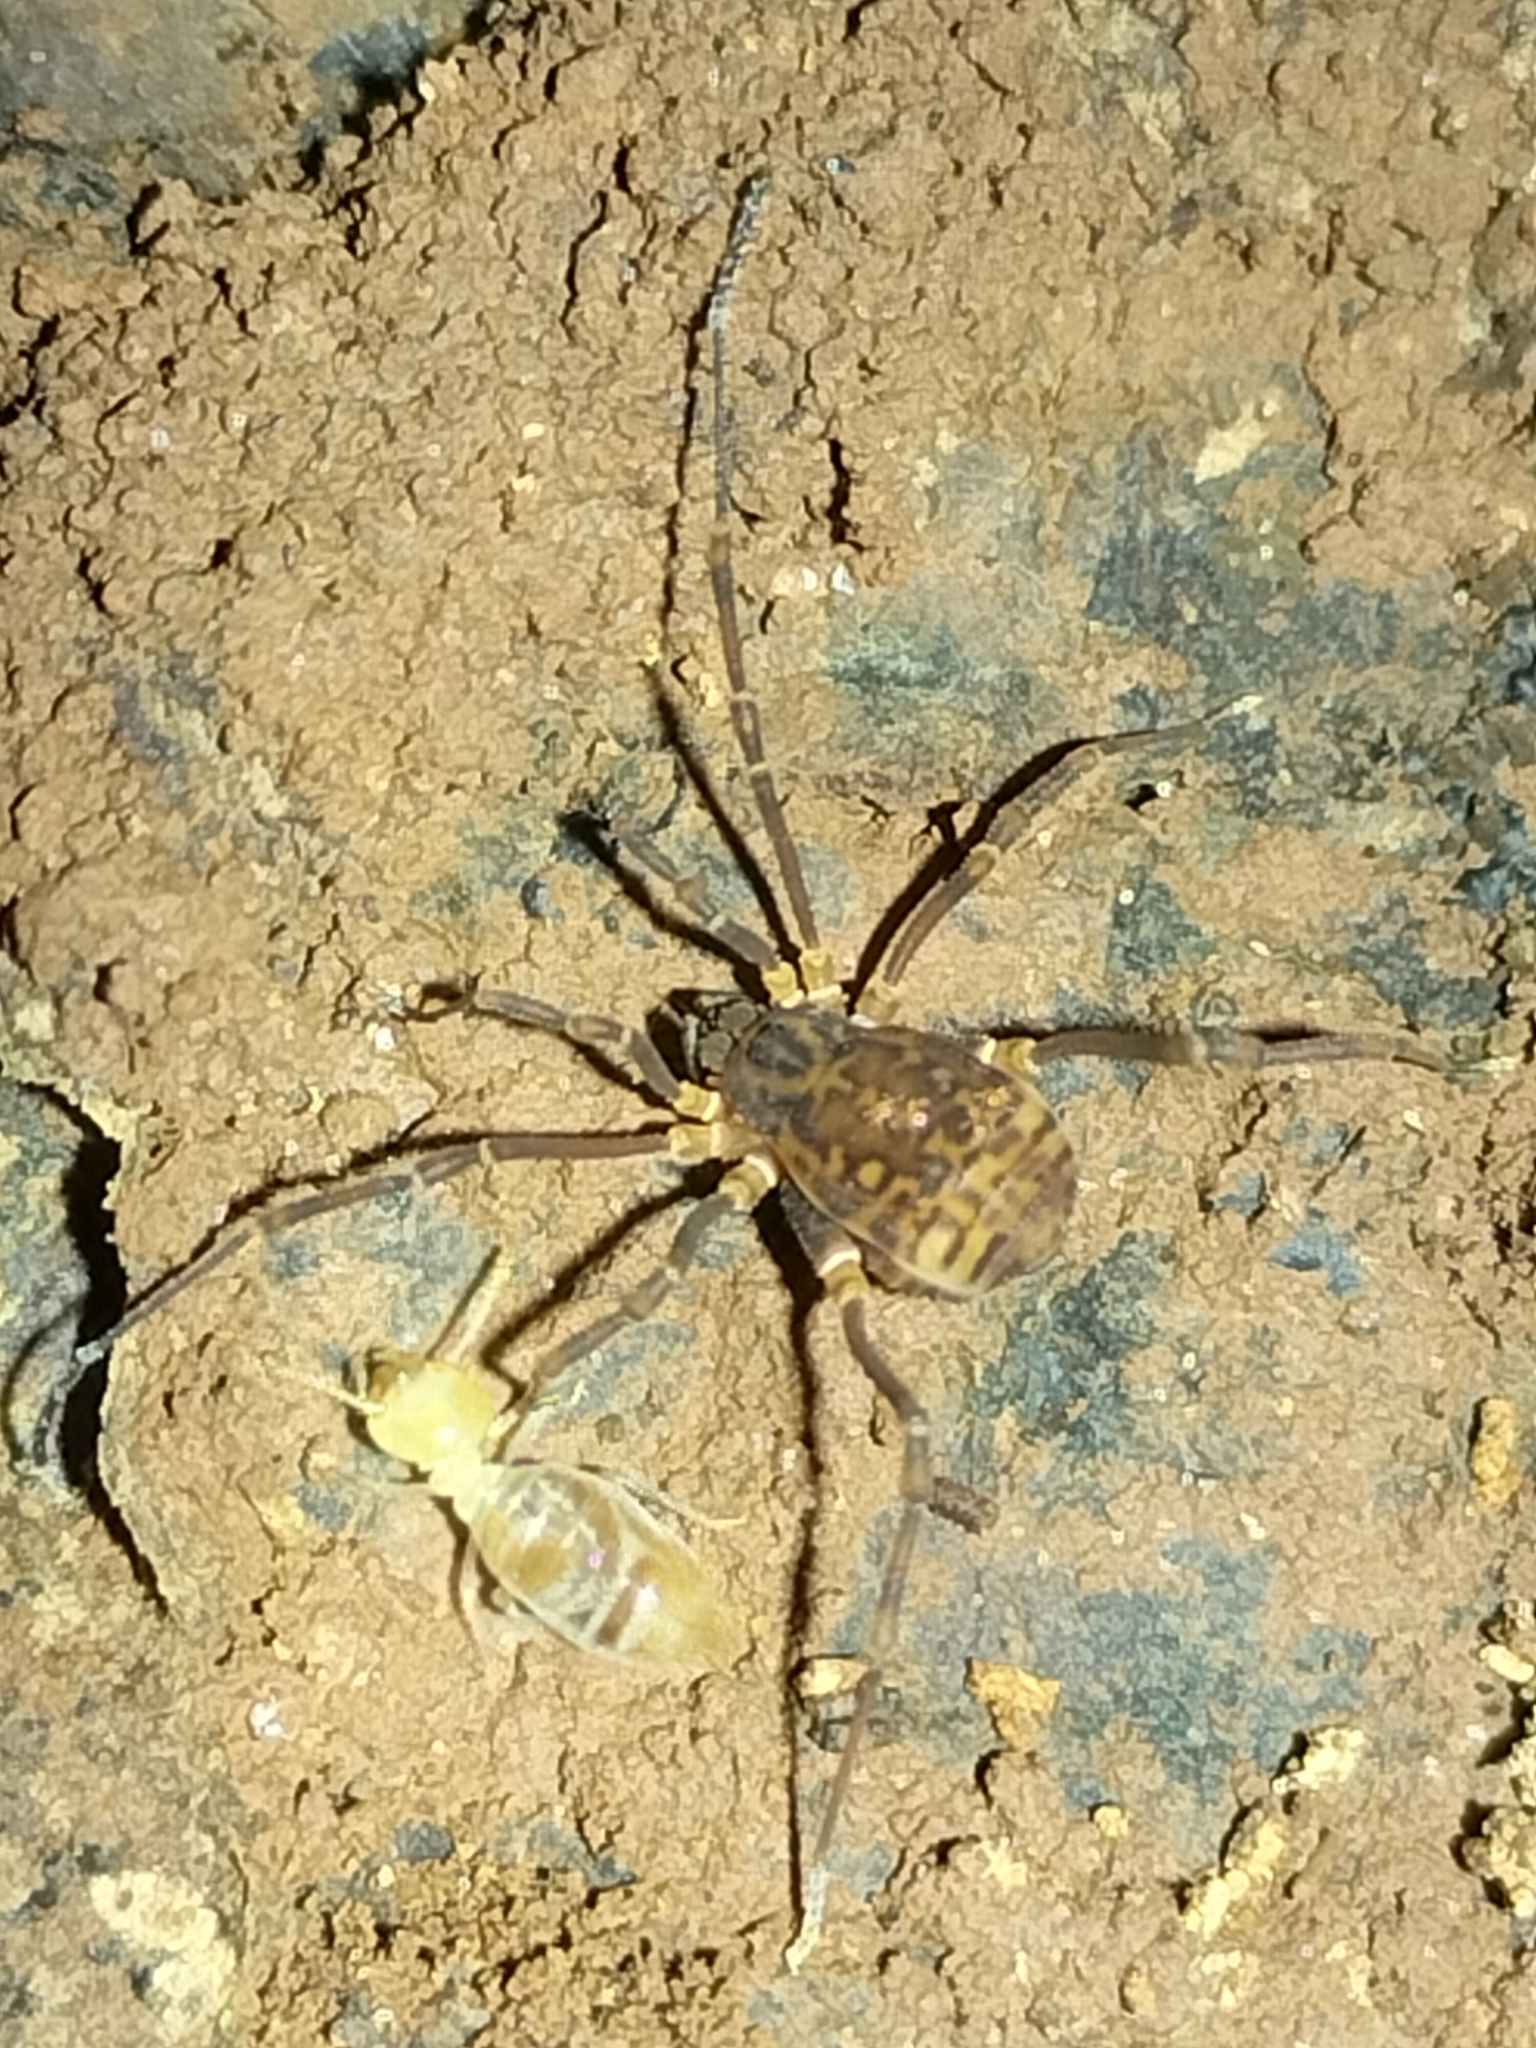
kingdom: Animalia
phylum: Arthropoda
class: Arachnida
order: Opiliones
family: Assamiidae
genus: Cardwella
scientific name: Cardwella atar
